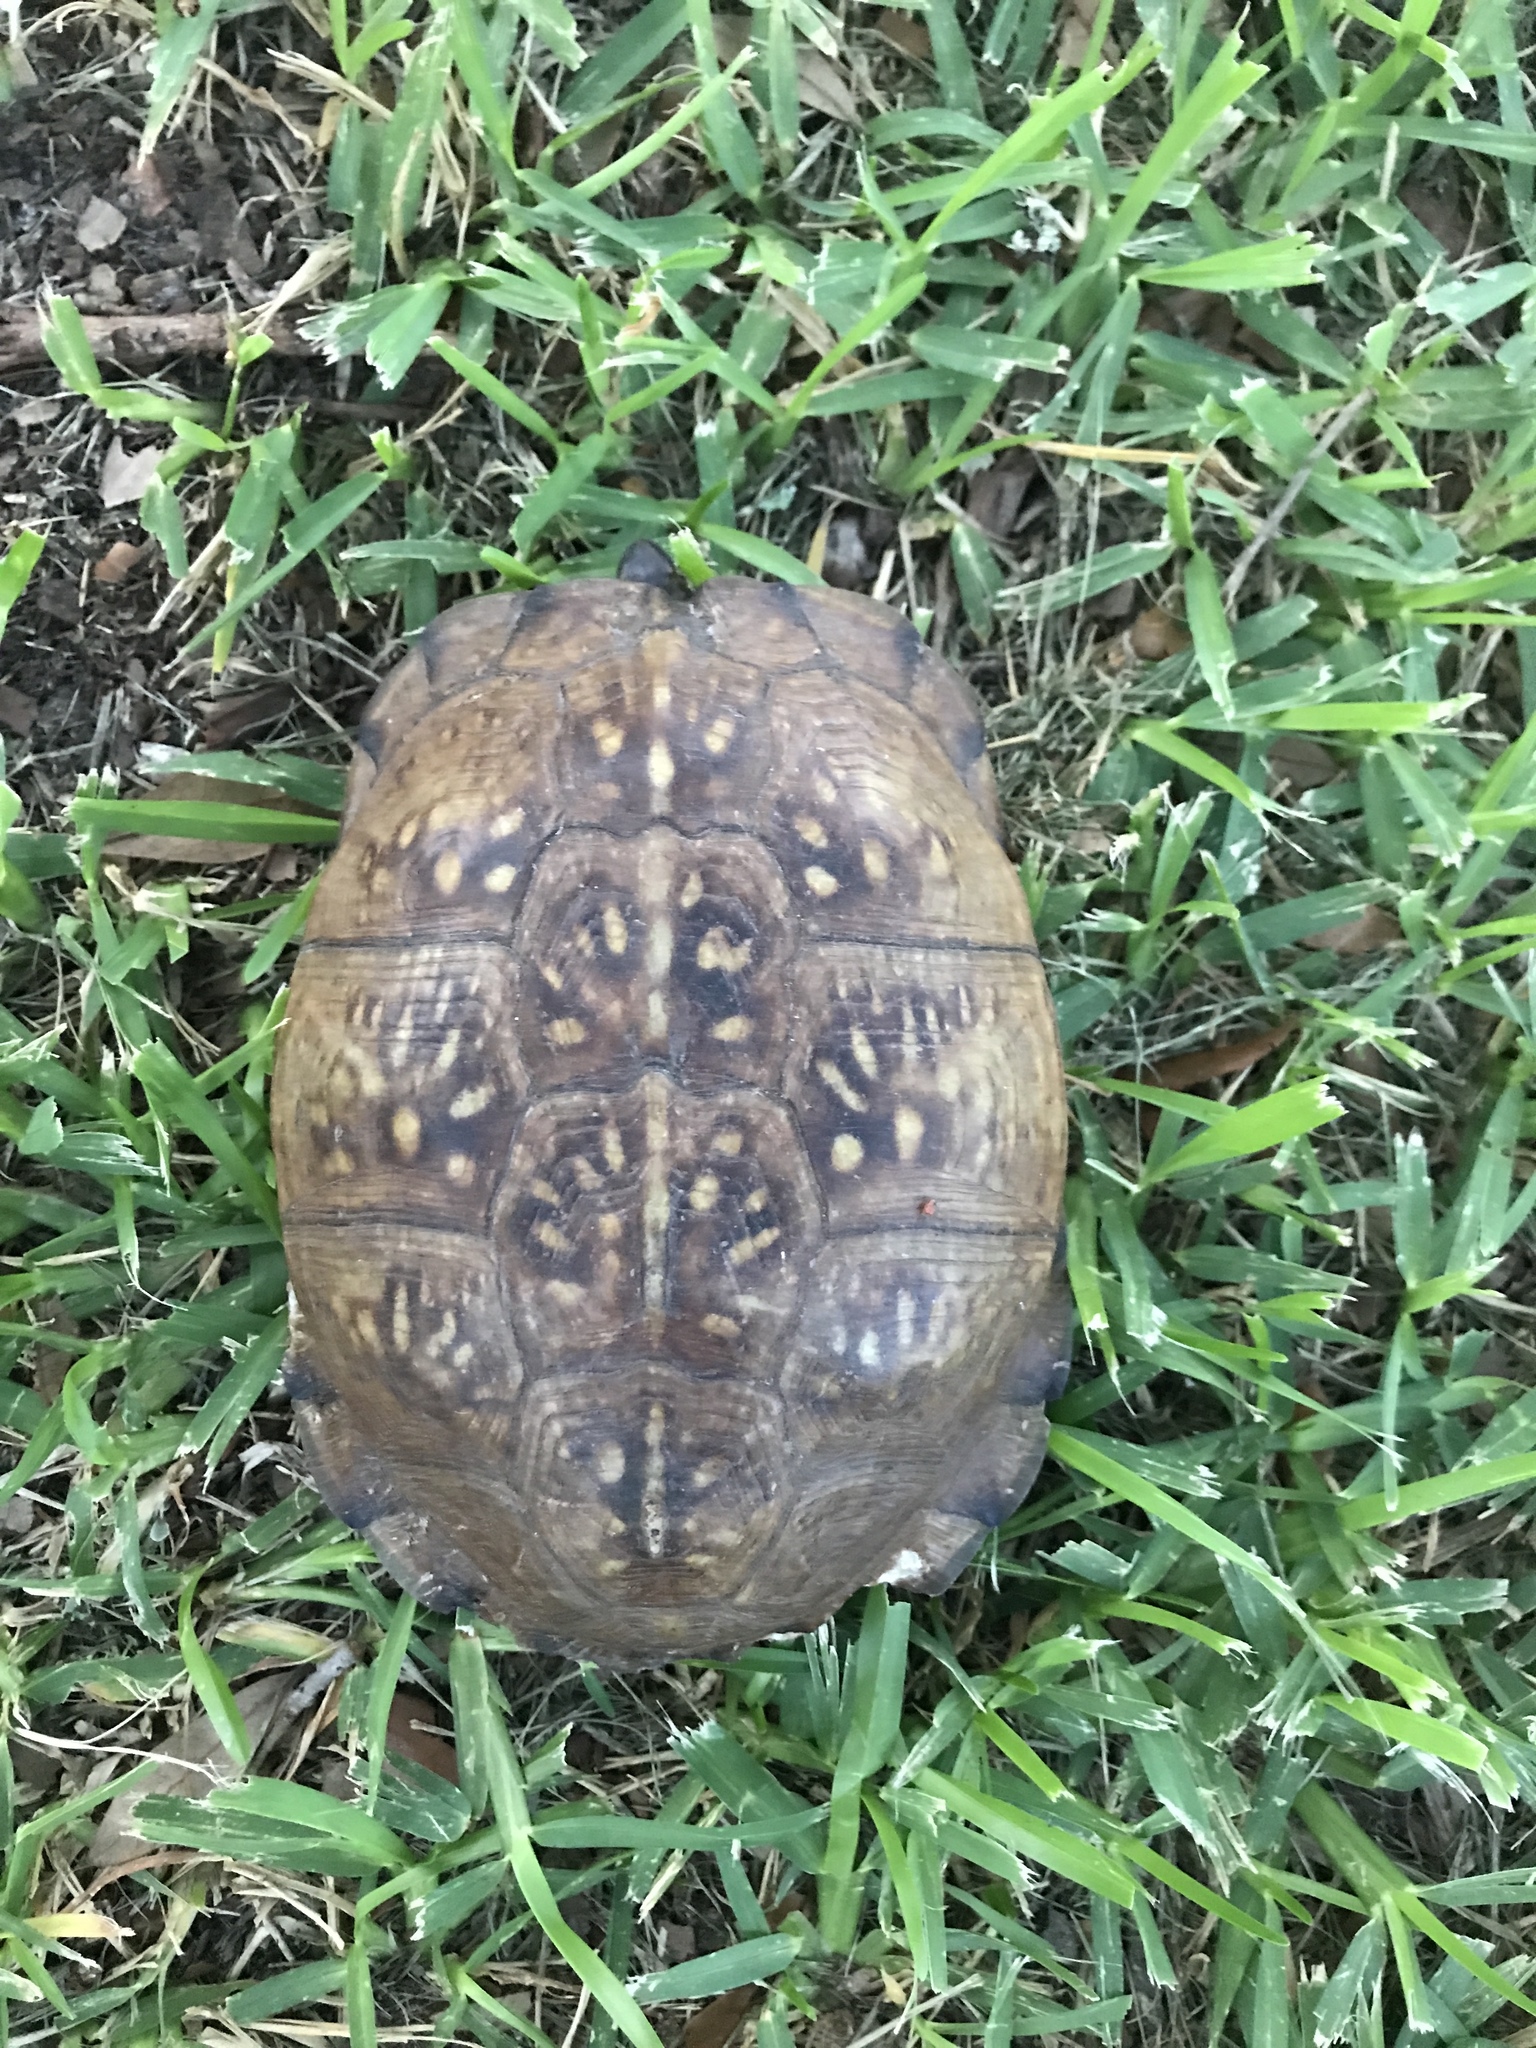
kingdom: Animalia
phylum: Chordata
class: Testudines
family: Emydidae
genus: Terrapene
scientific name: Terrapene carolina
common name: Common box turtle
